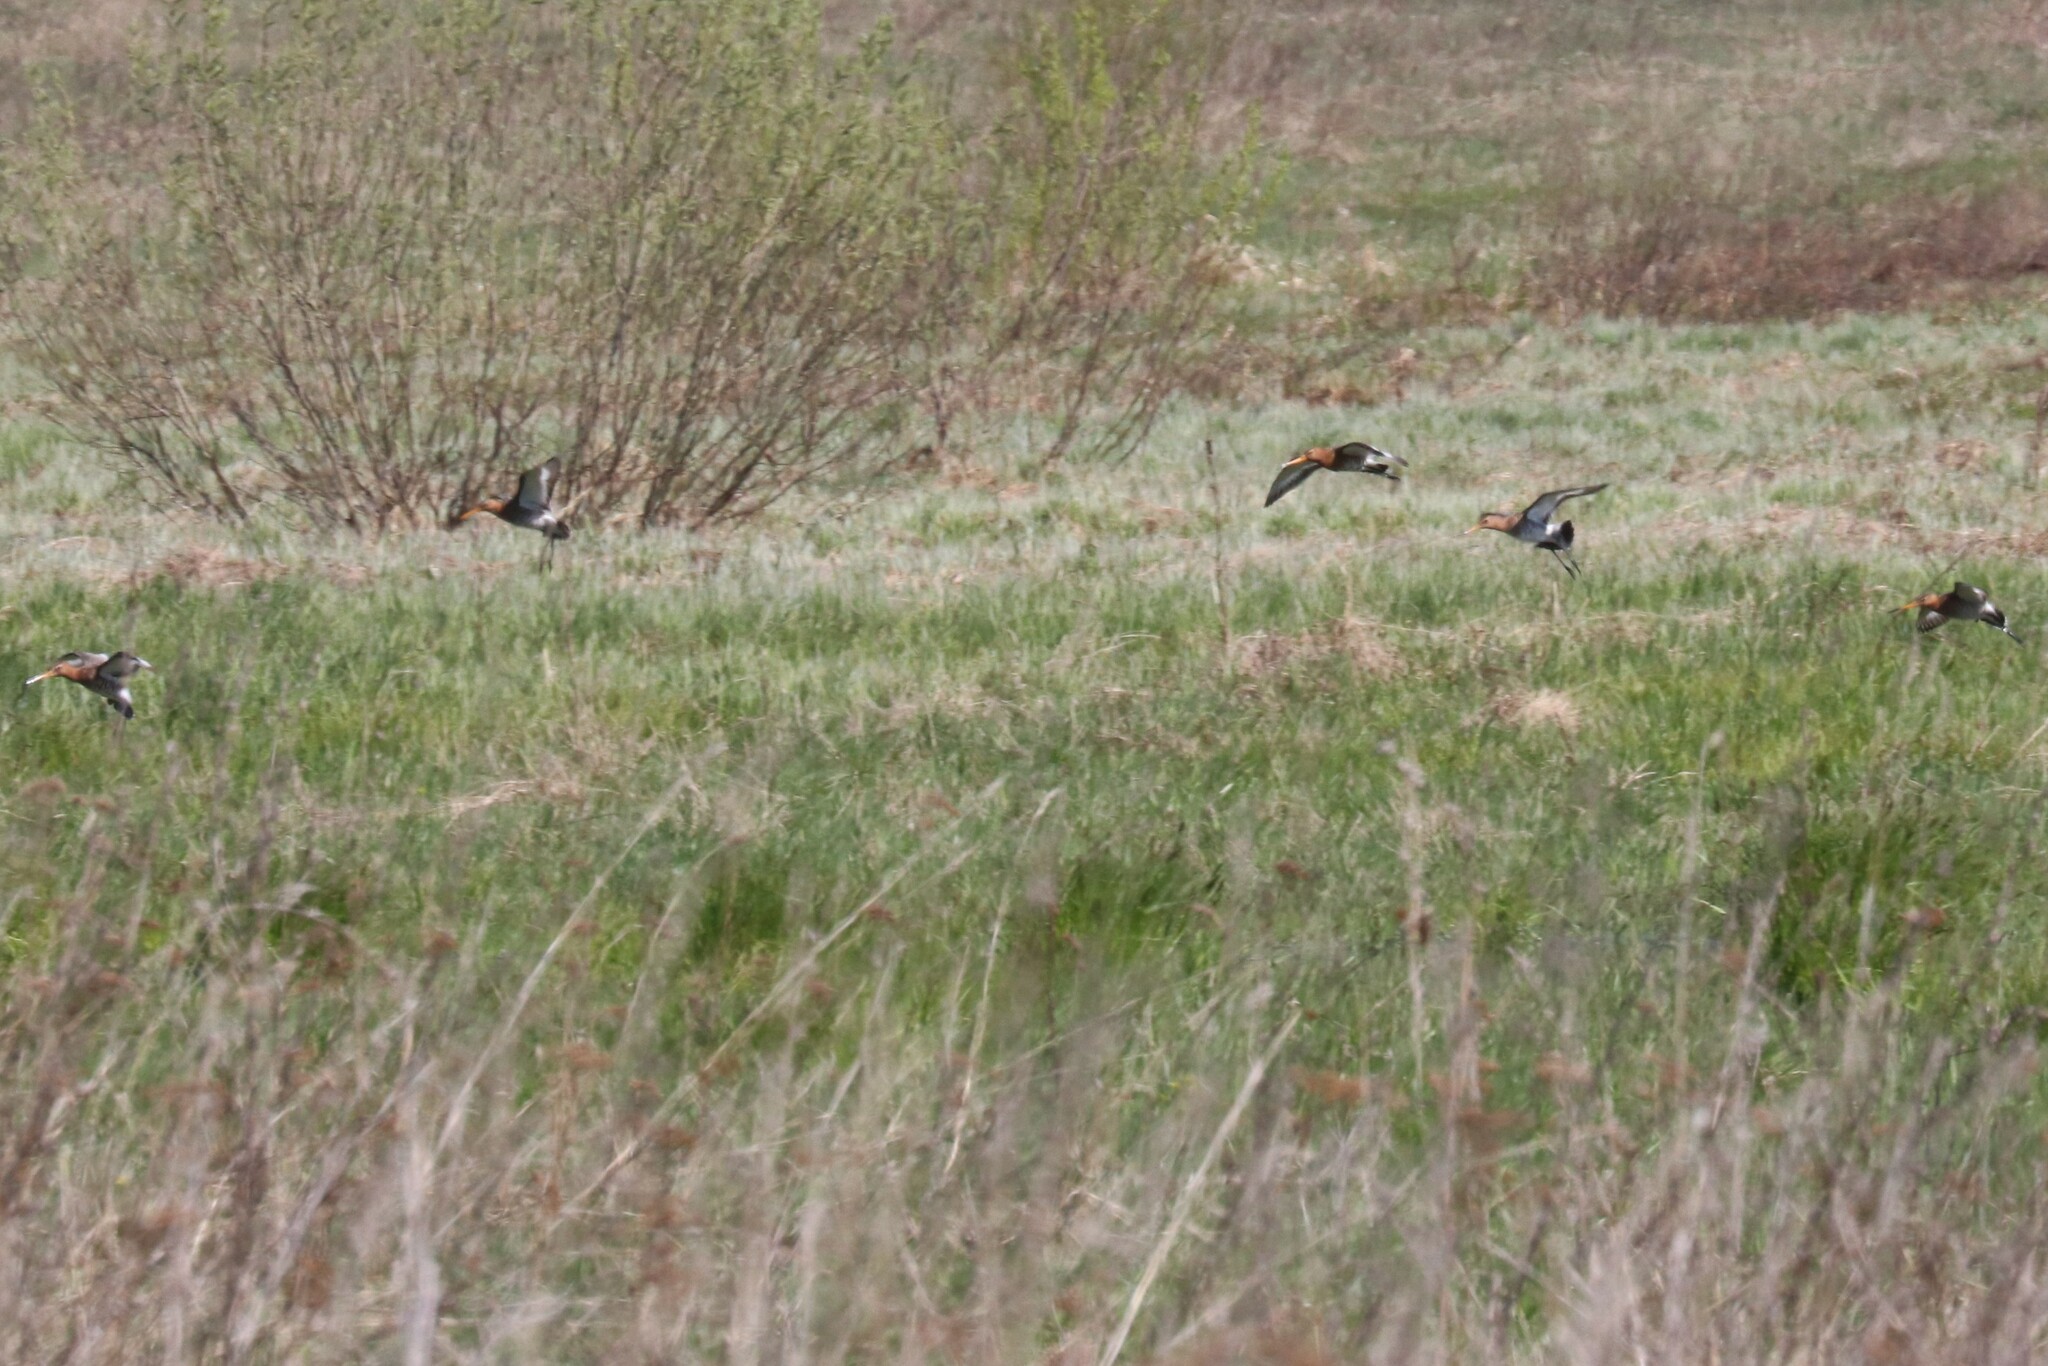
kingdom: Animalia
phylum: Chordata
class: Aves
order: Charadriiformes
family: Scolopacidae
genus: Limosa
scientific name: Limosa limosa
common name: Black-tailed godwit
